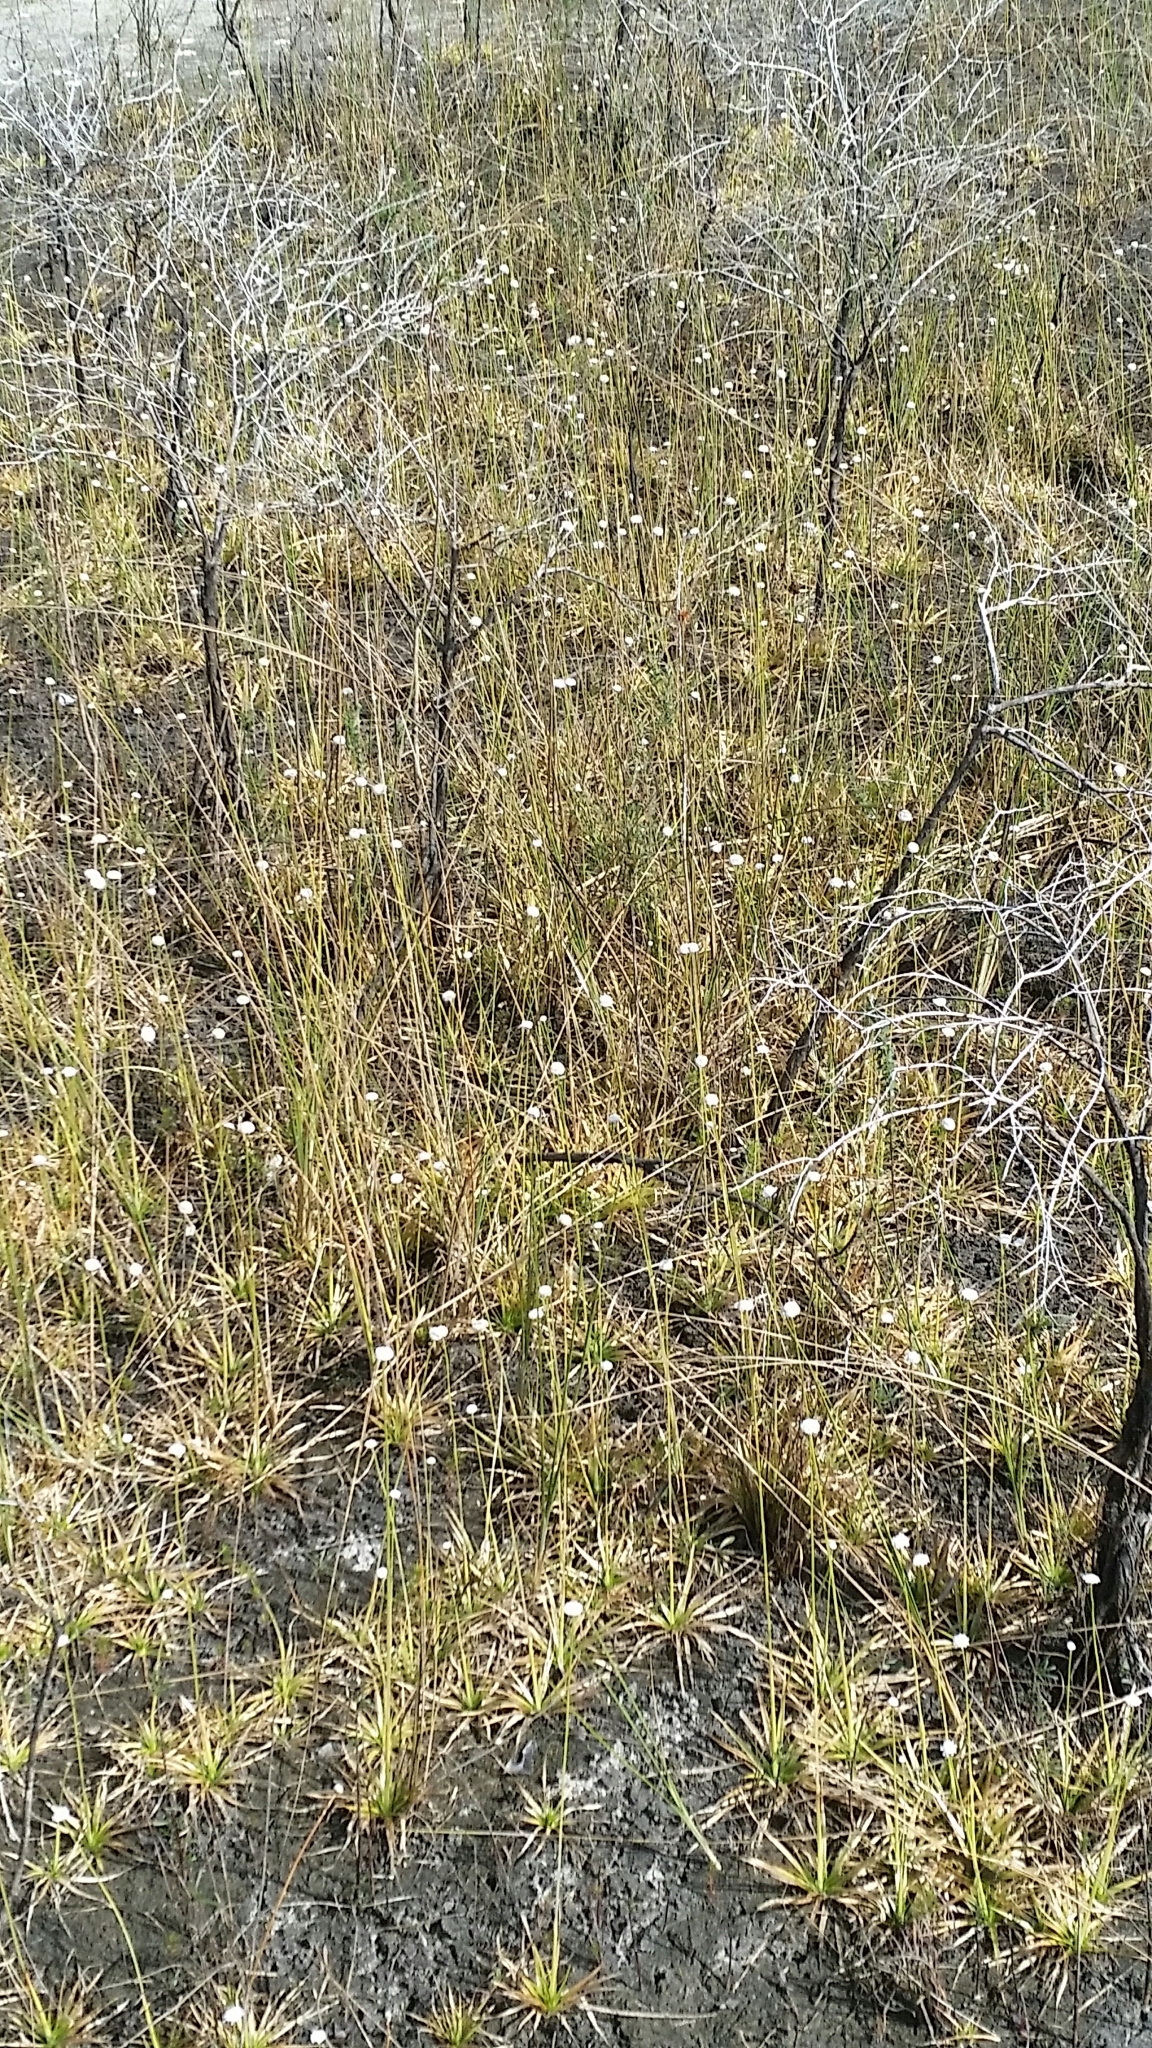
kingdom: Plantae
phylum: Tracheophyta
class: Liliopsida
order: Poales
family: Eriocaulaceae
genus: Eriocaulon
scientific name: Eriocaulon compressum
